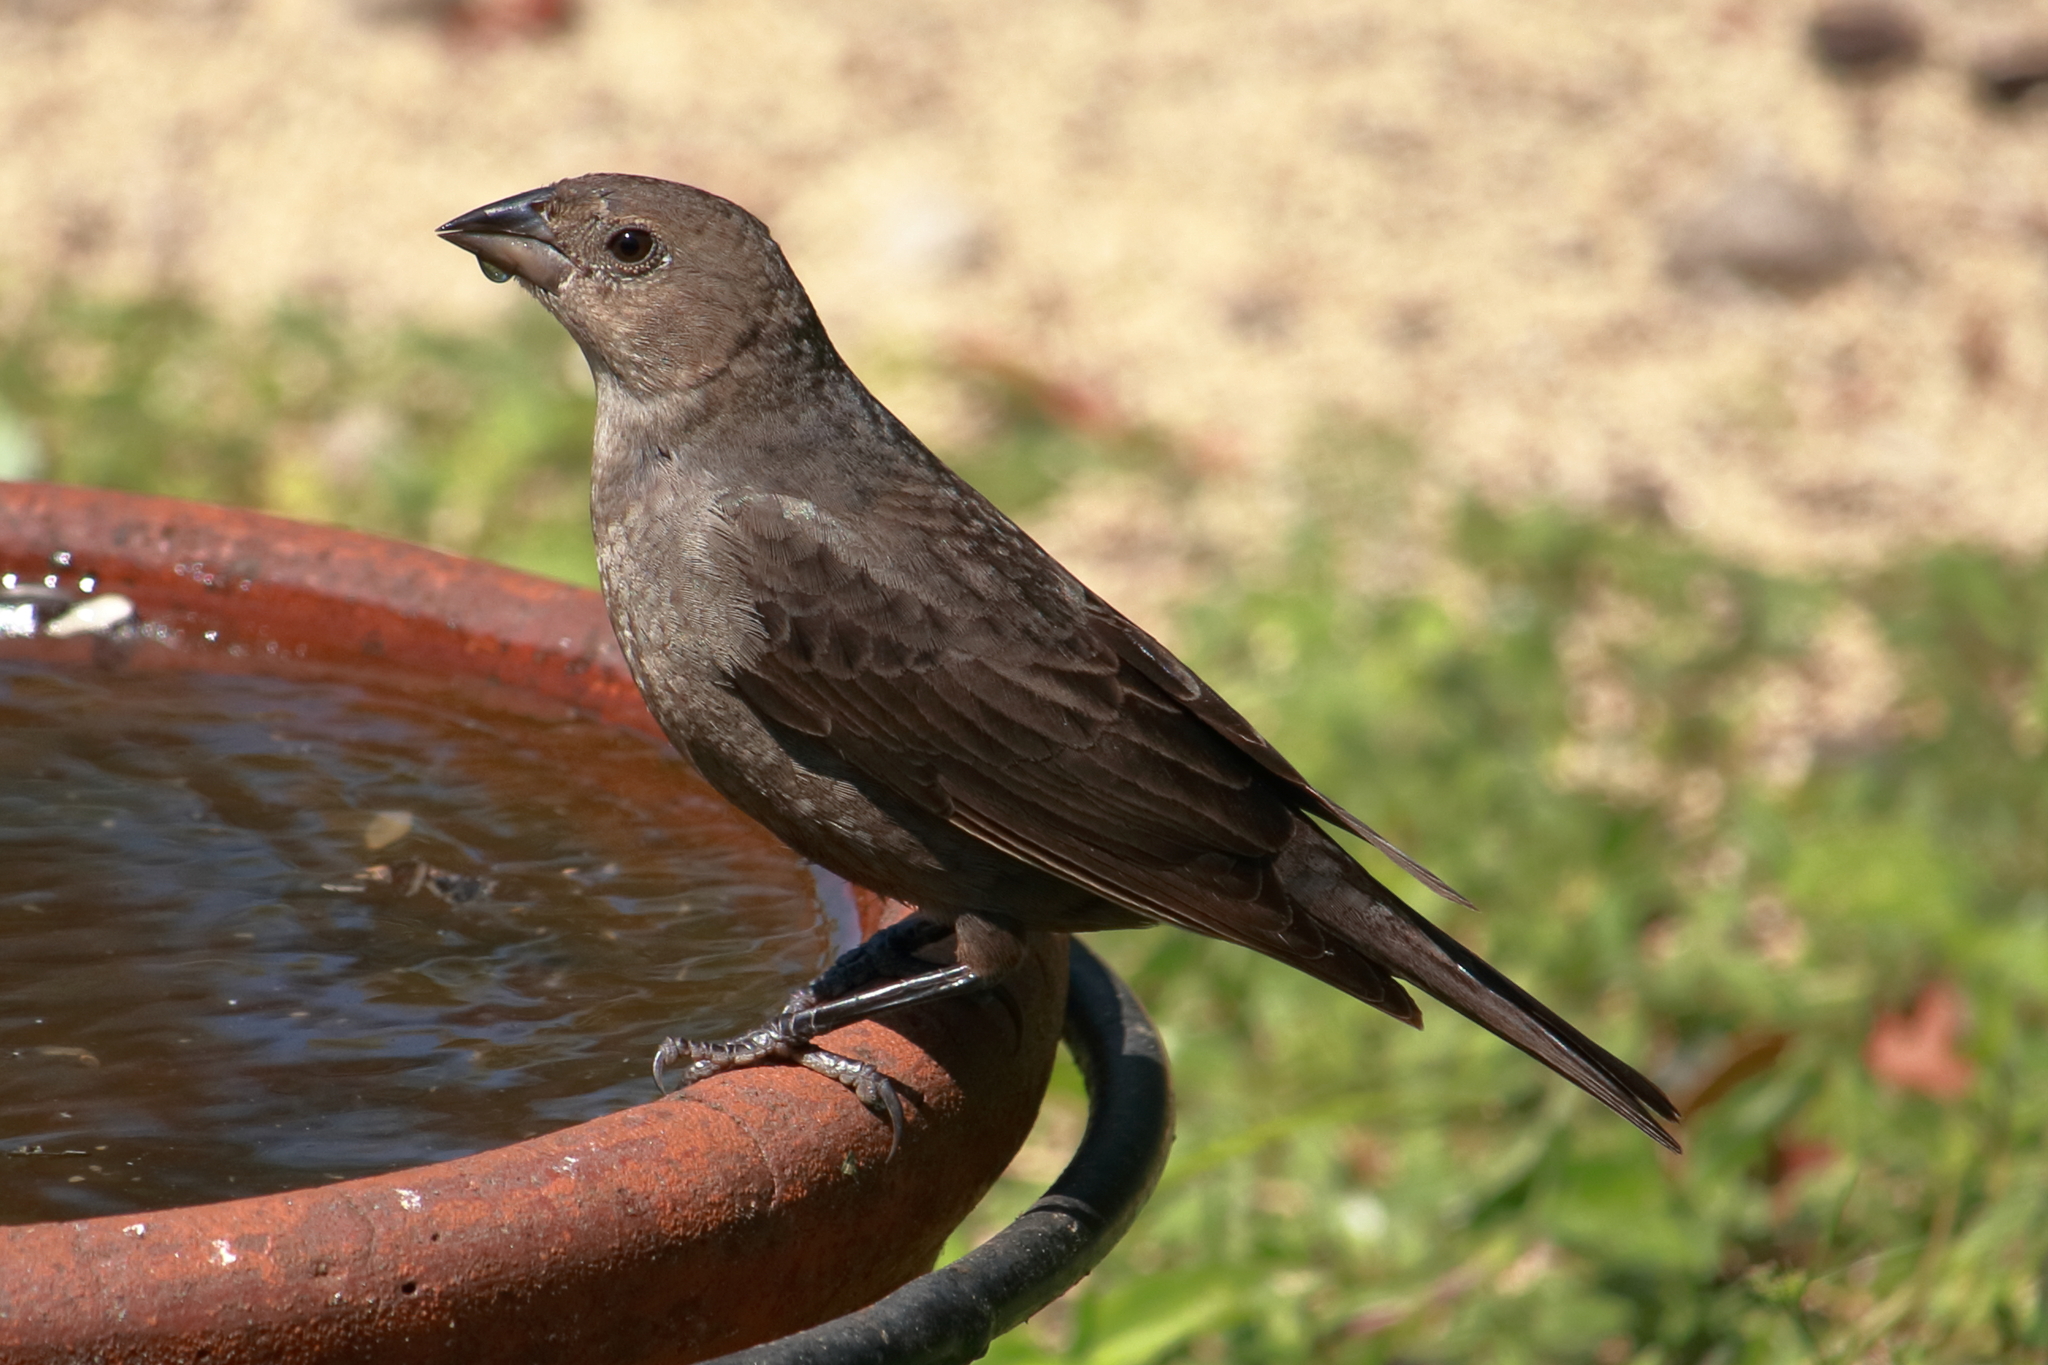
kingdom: Animalia
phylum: Chordata
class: Aves
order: Passeriformes
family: Icteridae
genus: Molothrus
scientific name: Molothrus ater
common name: Brown-headed cowbird
